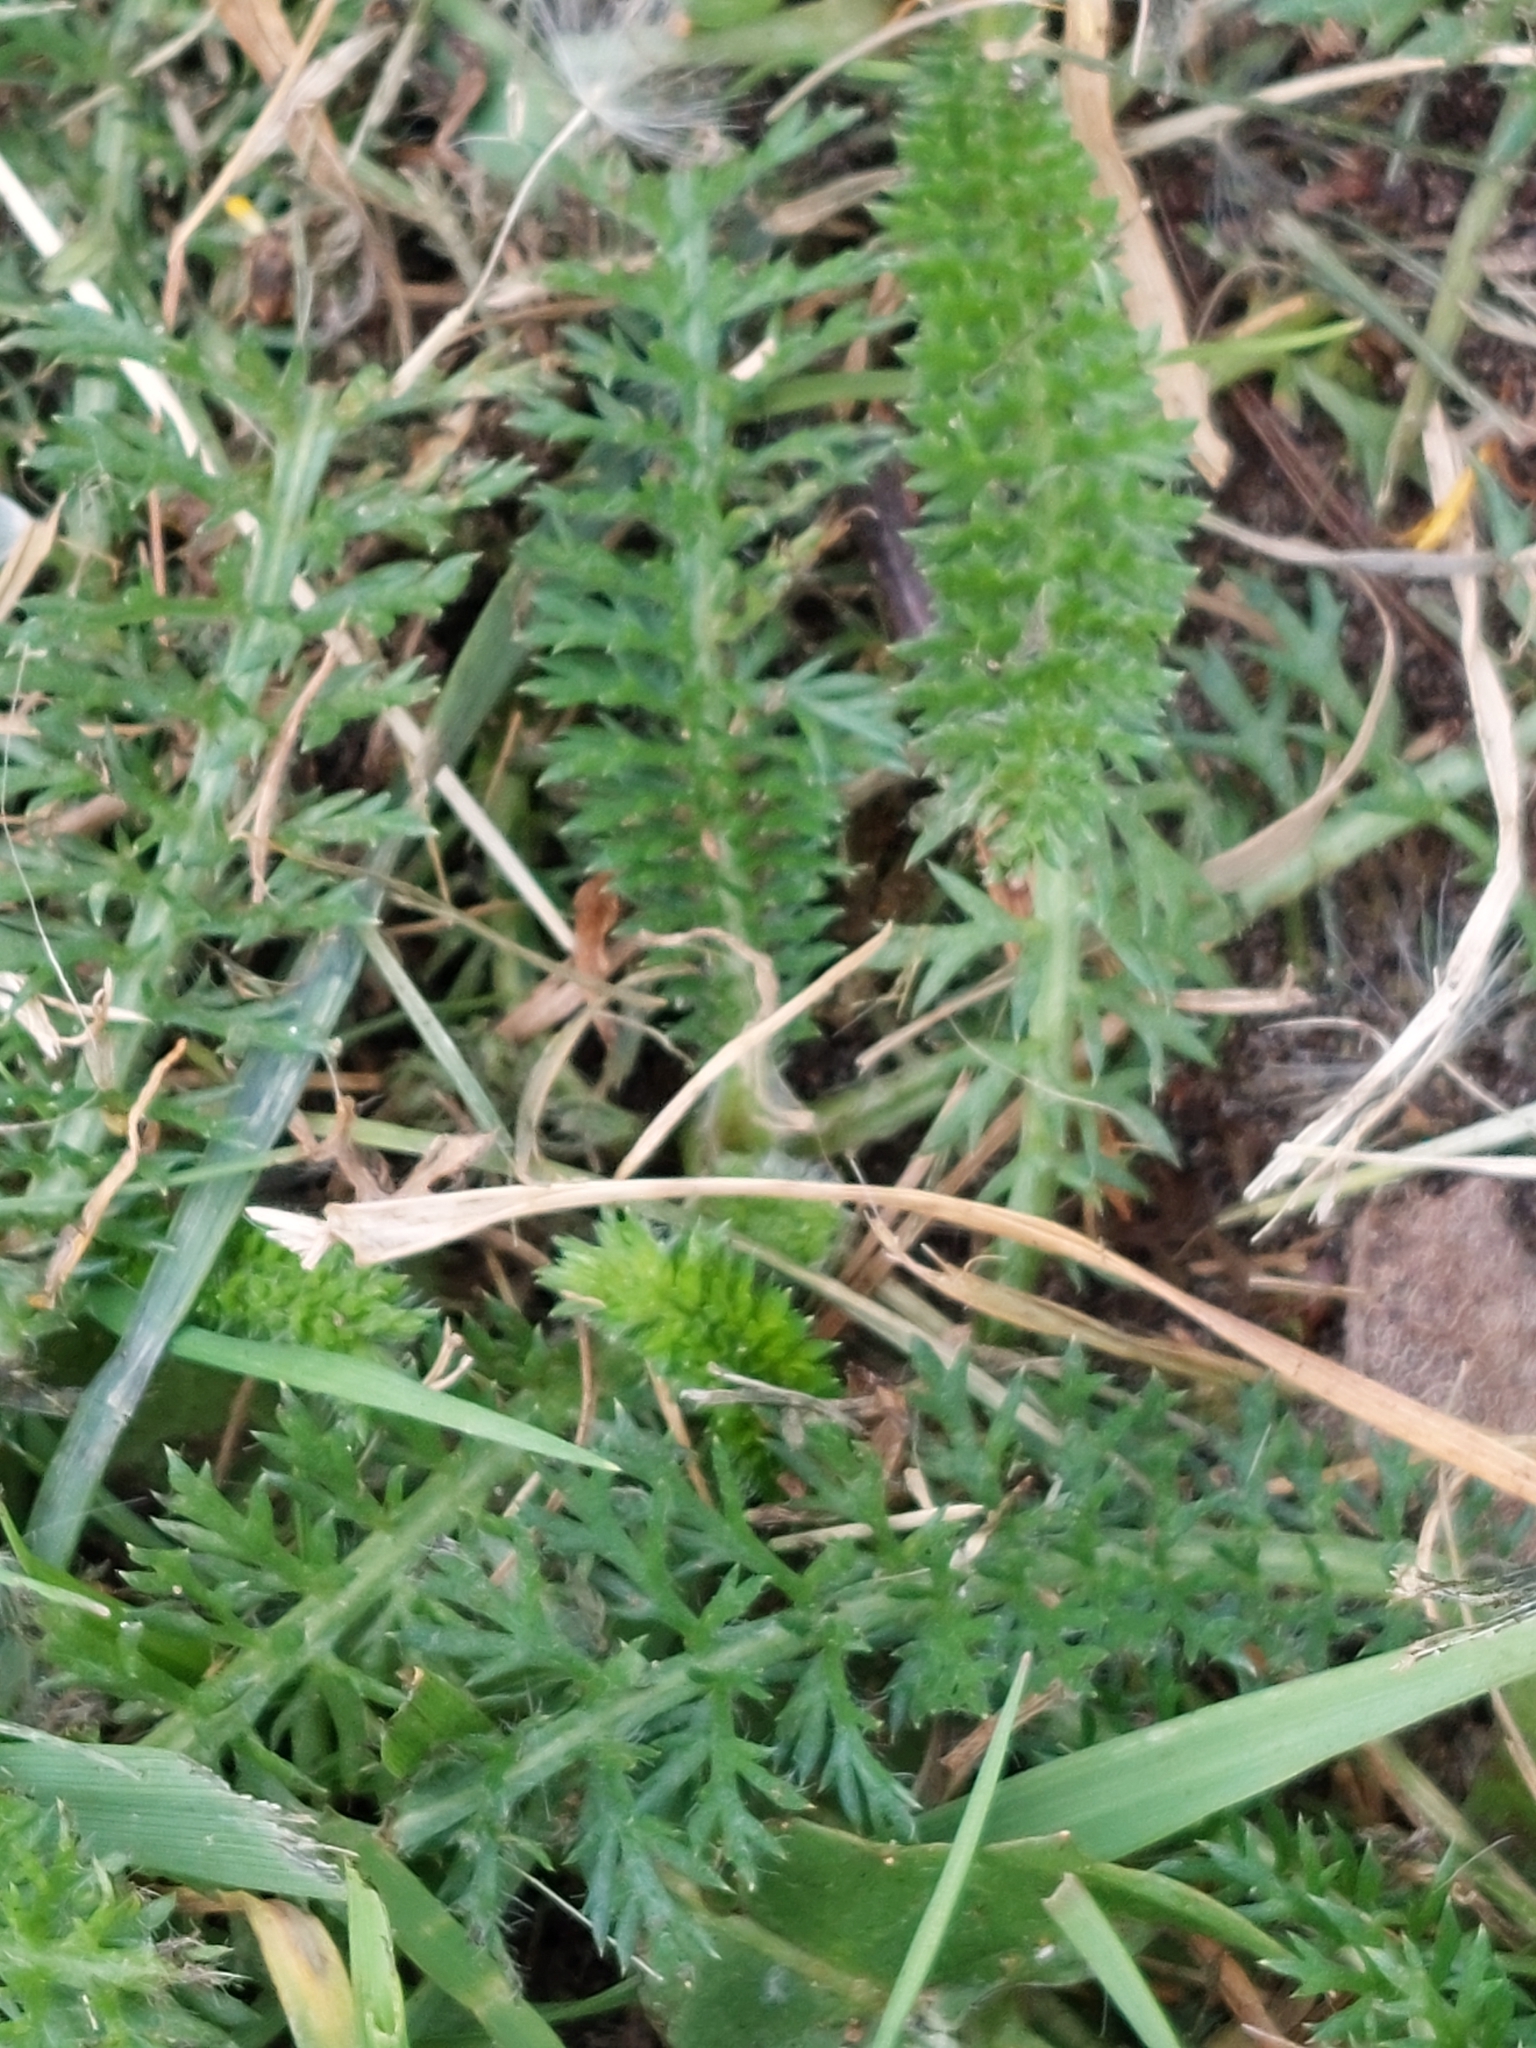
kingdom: Plantae
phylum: Tracheophyta
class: Magnoliopsida
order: Asterales
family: Asteraceae
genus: Achillea
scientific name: Achillea millefolium
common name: Yarrow
